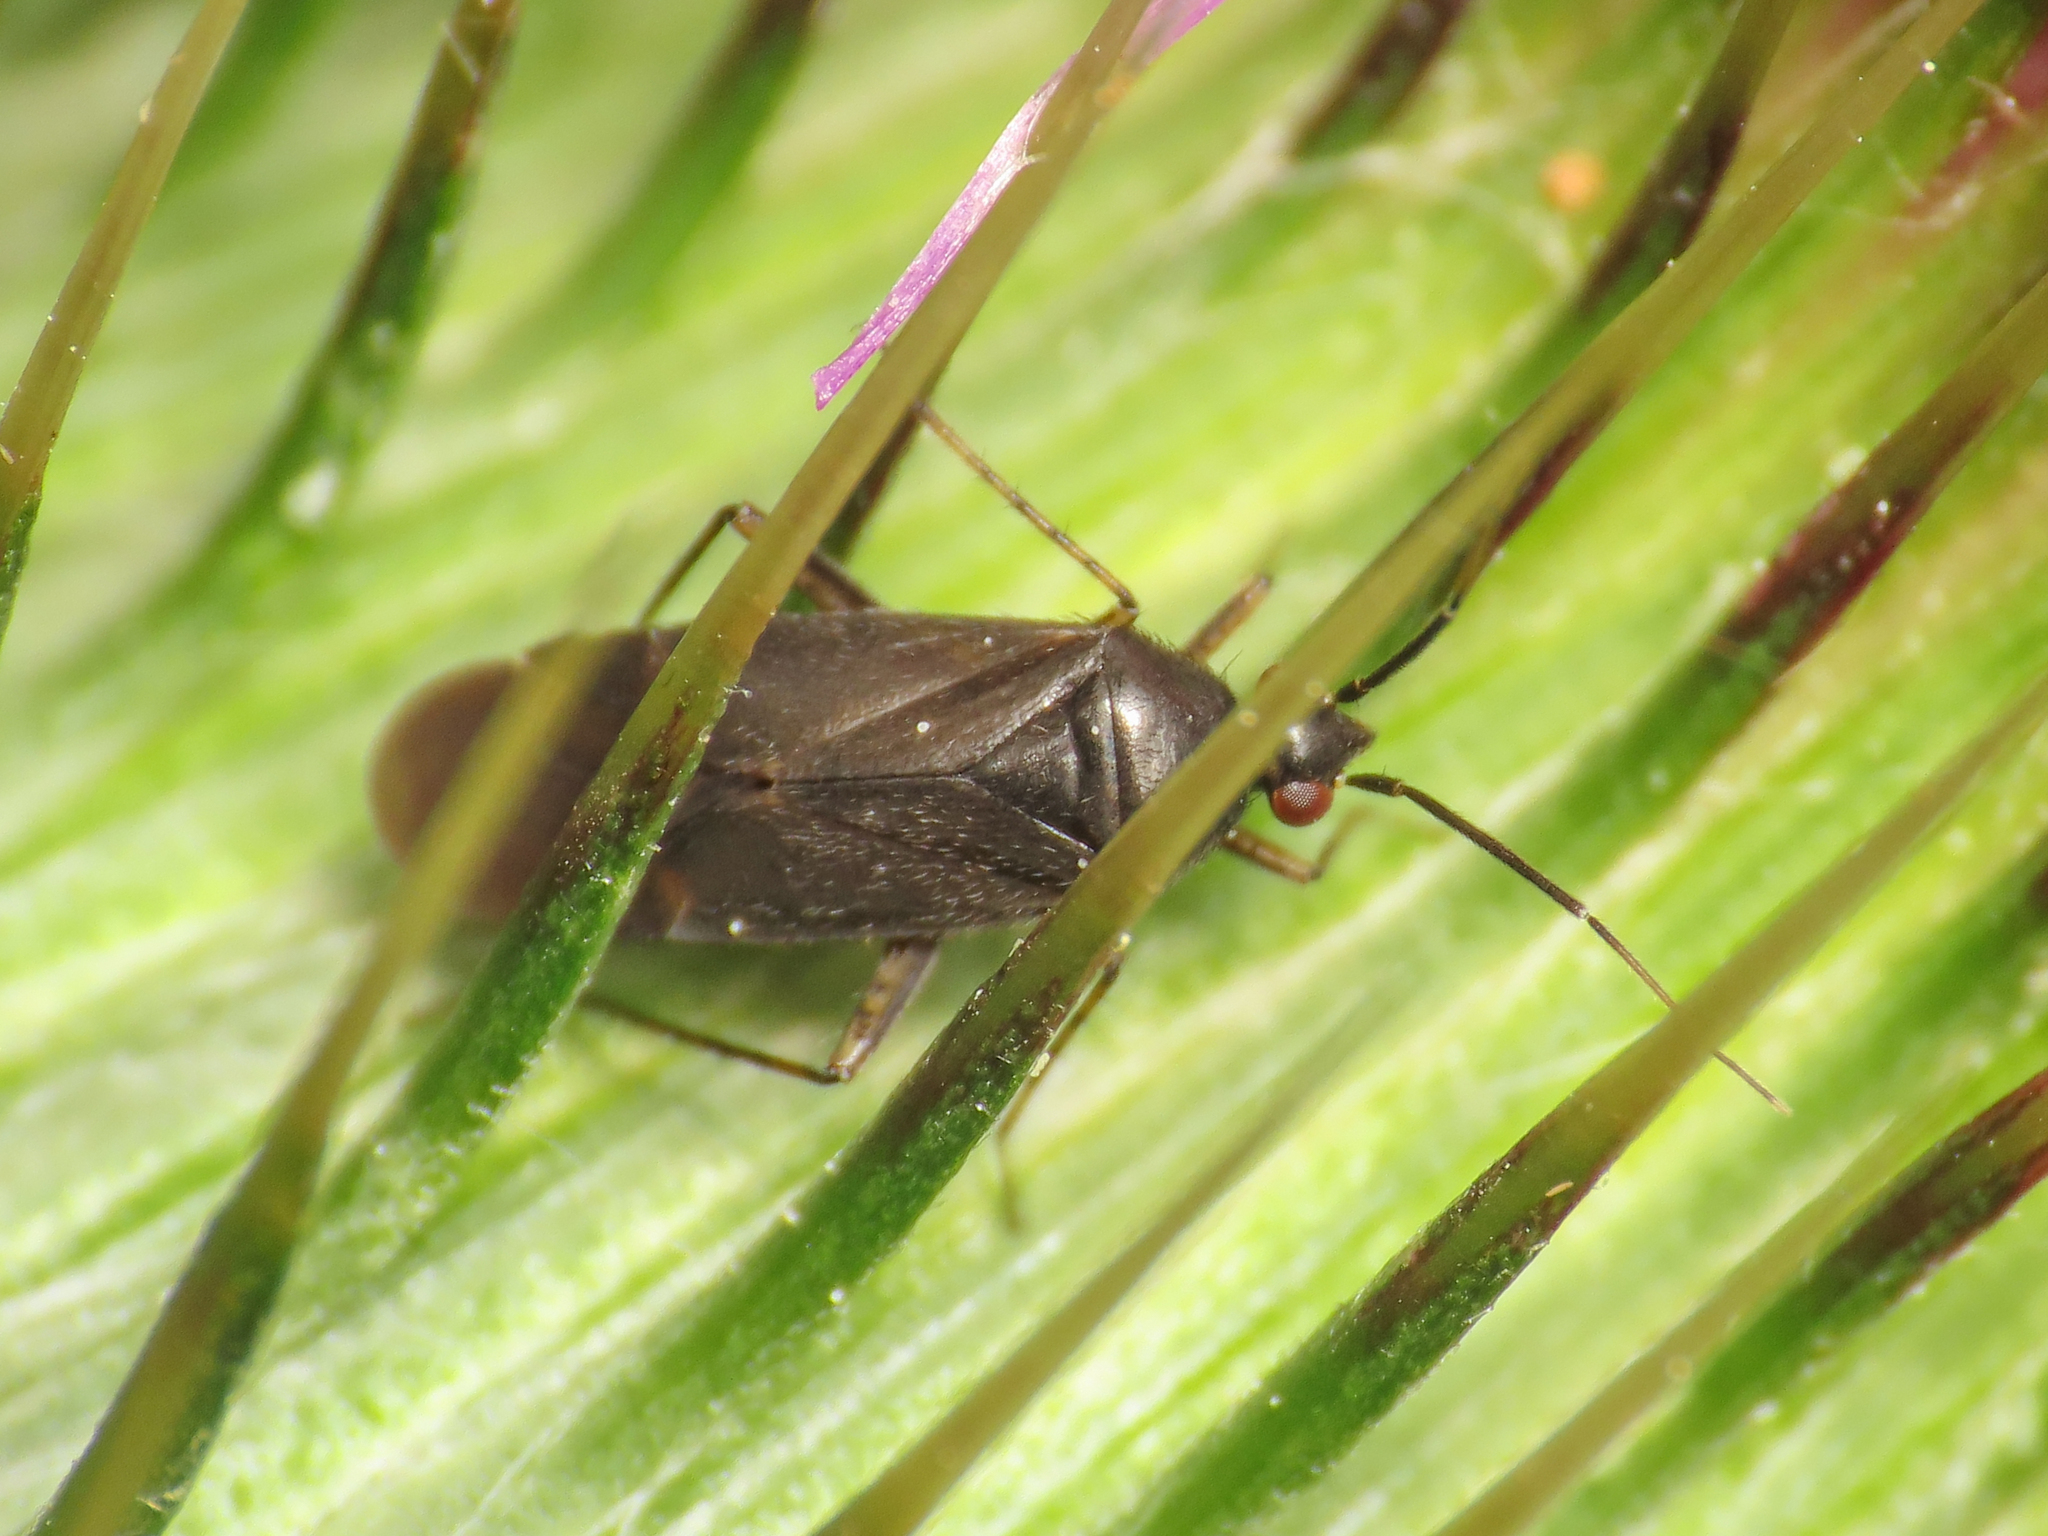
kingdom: Animalia
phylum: Arthropoda
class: Insecta
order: Hemiptera
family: Miridae
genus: Plagiognathus
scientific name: Plagiognathus arbustorum
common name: Plant bug
